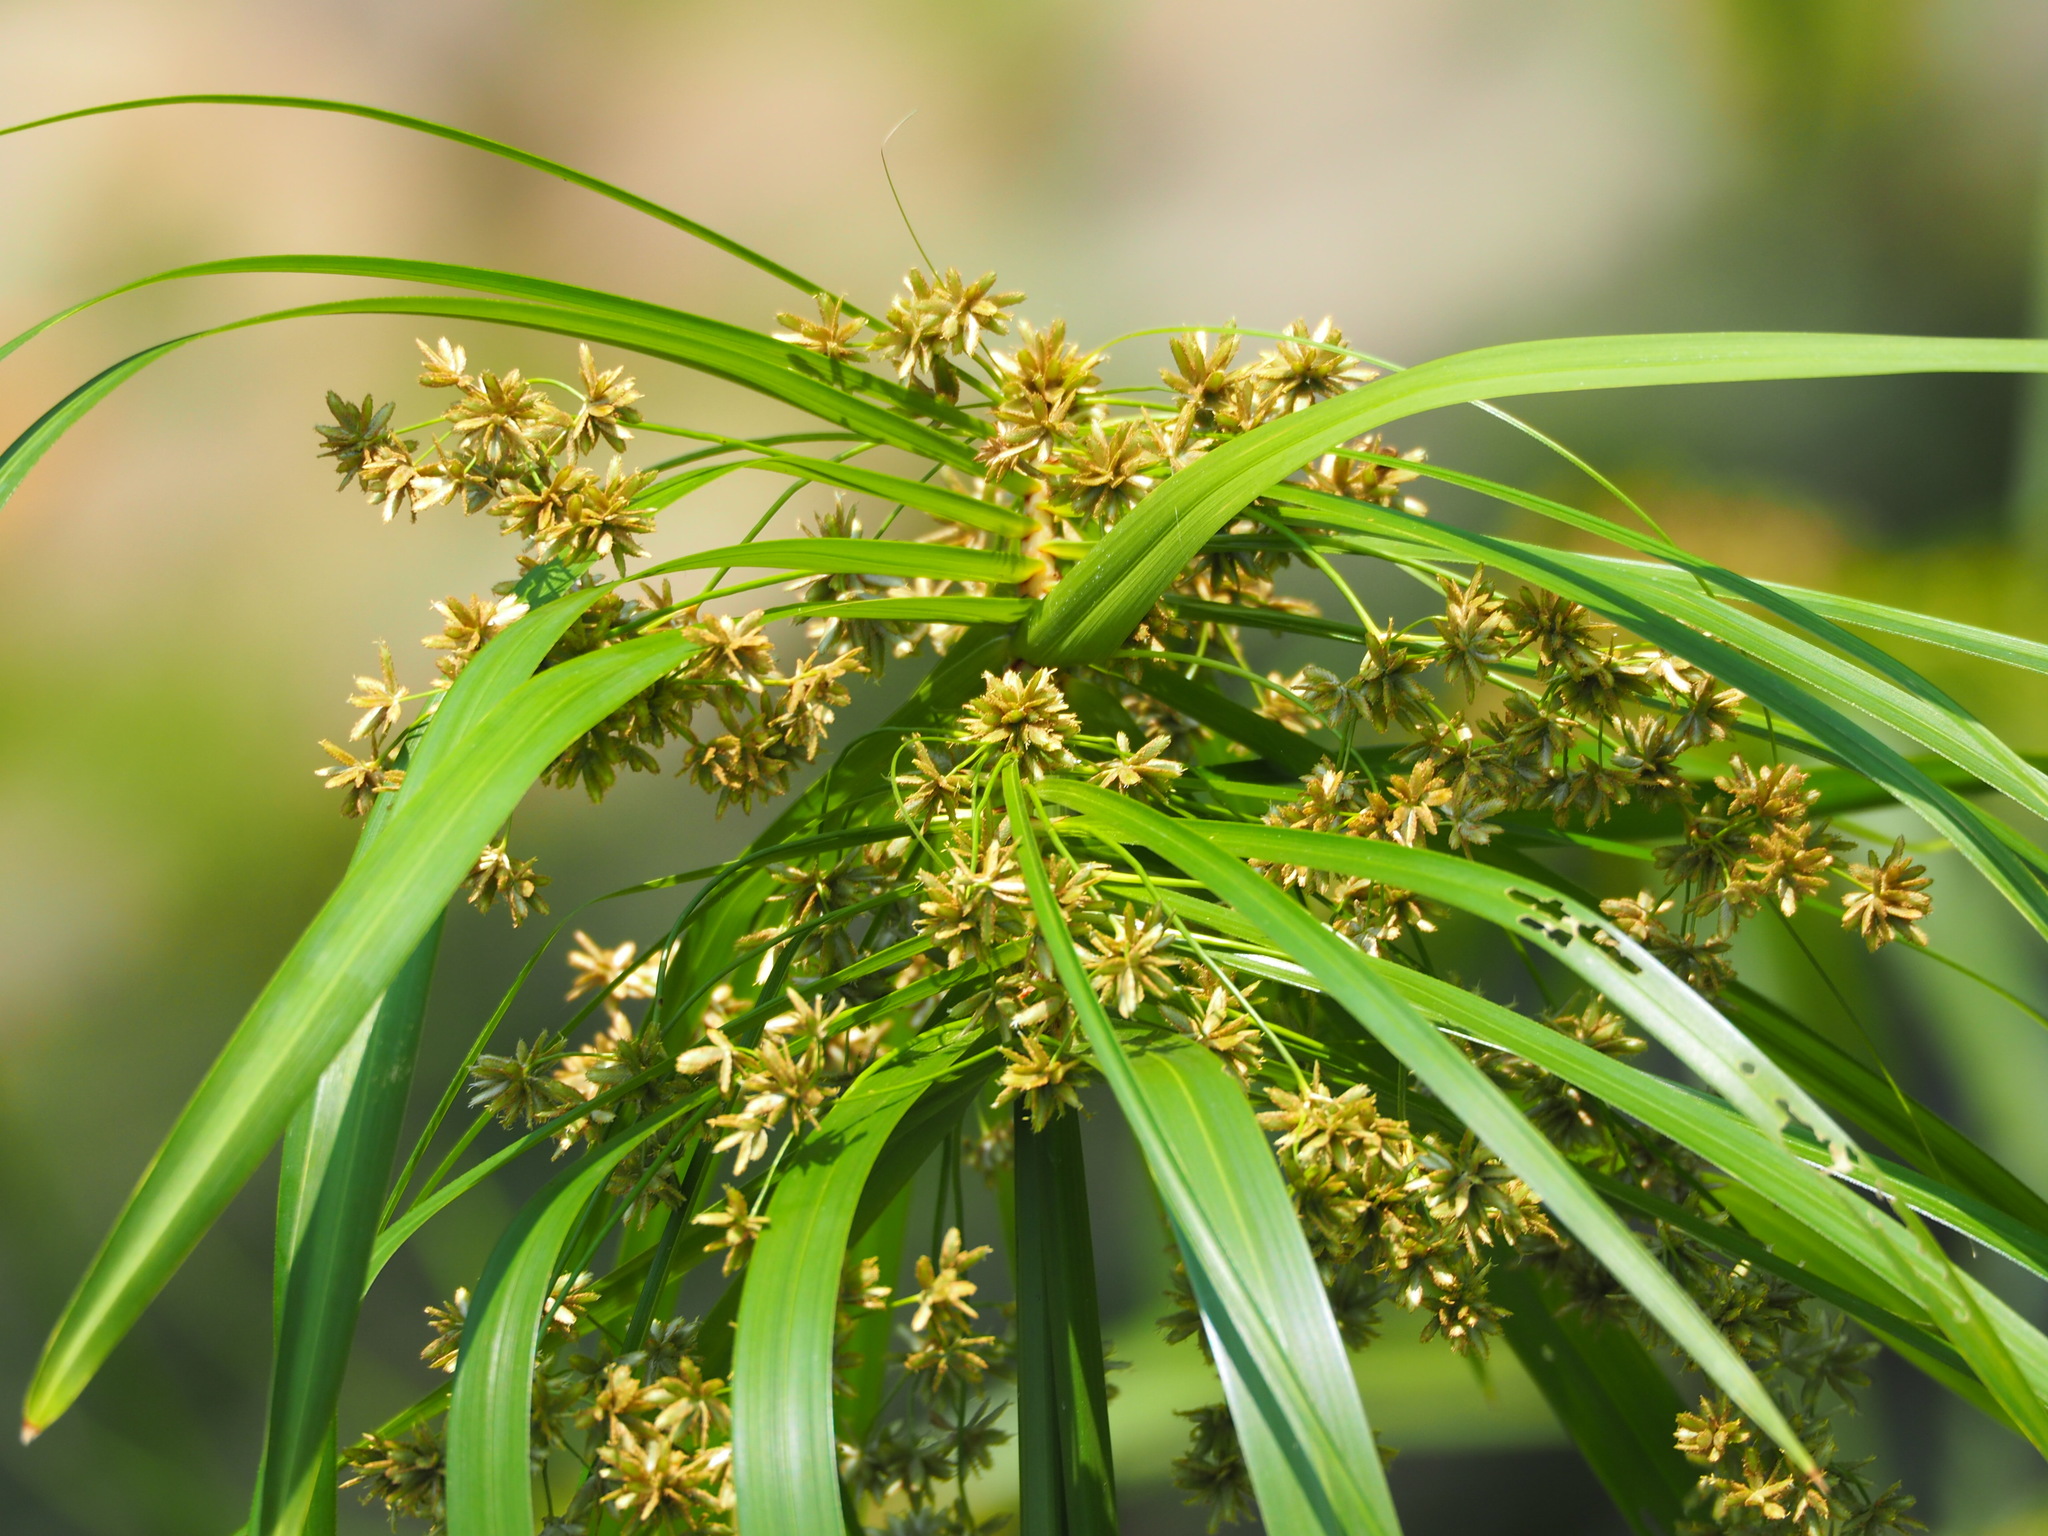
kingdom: Plantae
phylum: Tracheophyta
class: Liliopsida
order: Poales
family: Cyperaceae
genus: Cyperus
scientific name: Cyperus alternifolius
